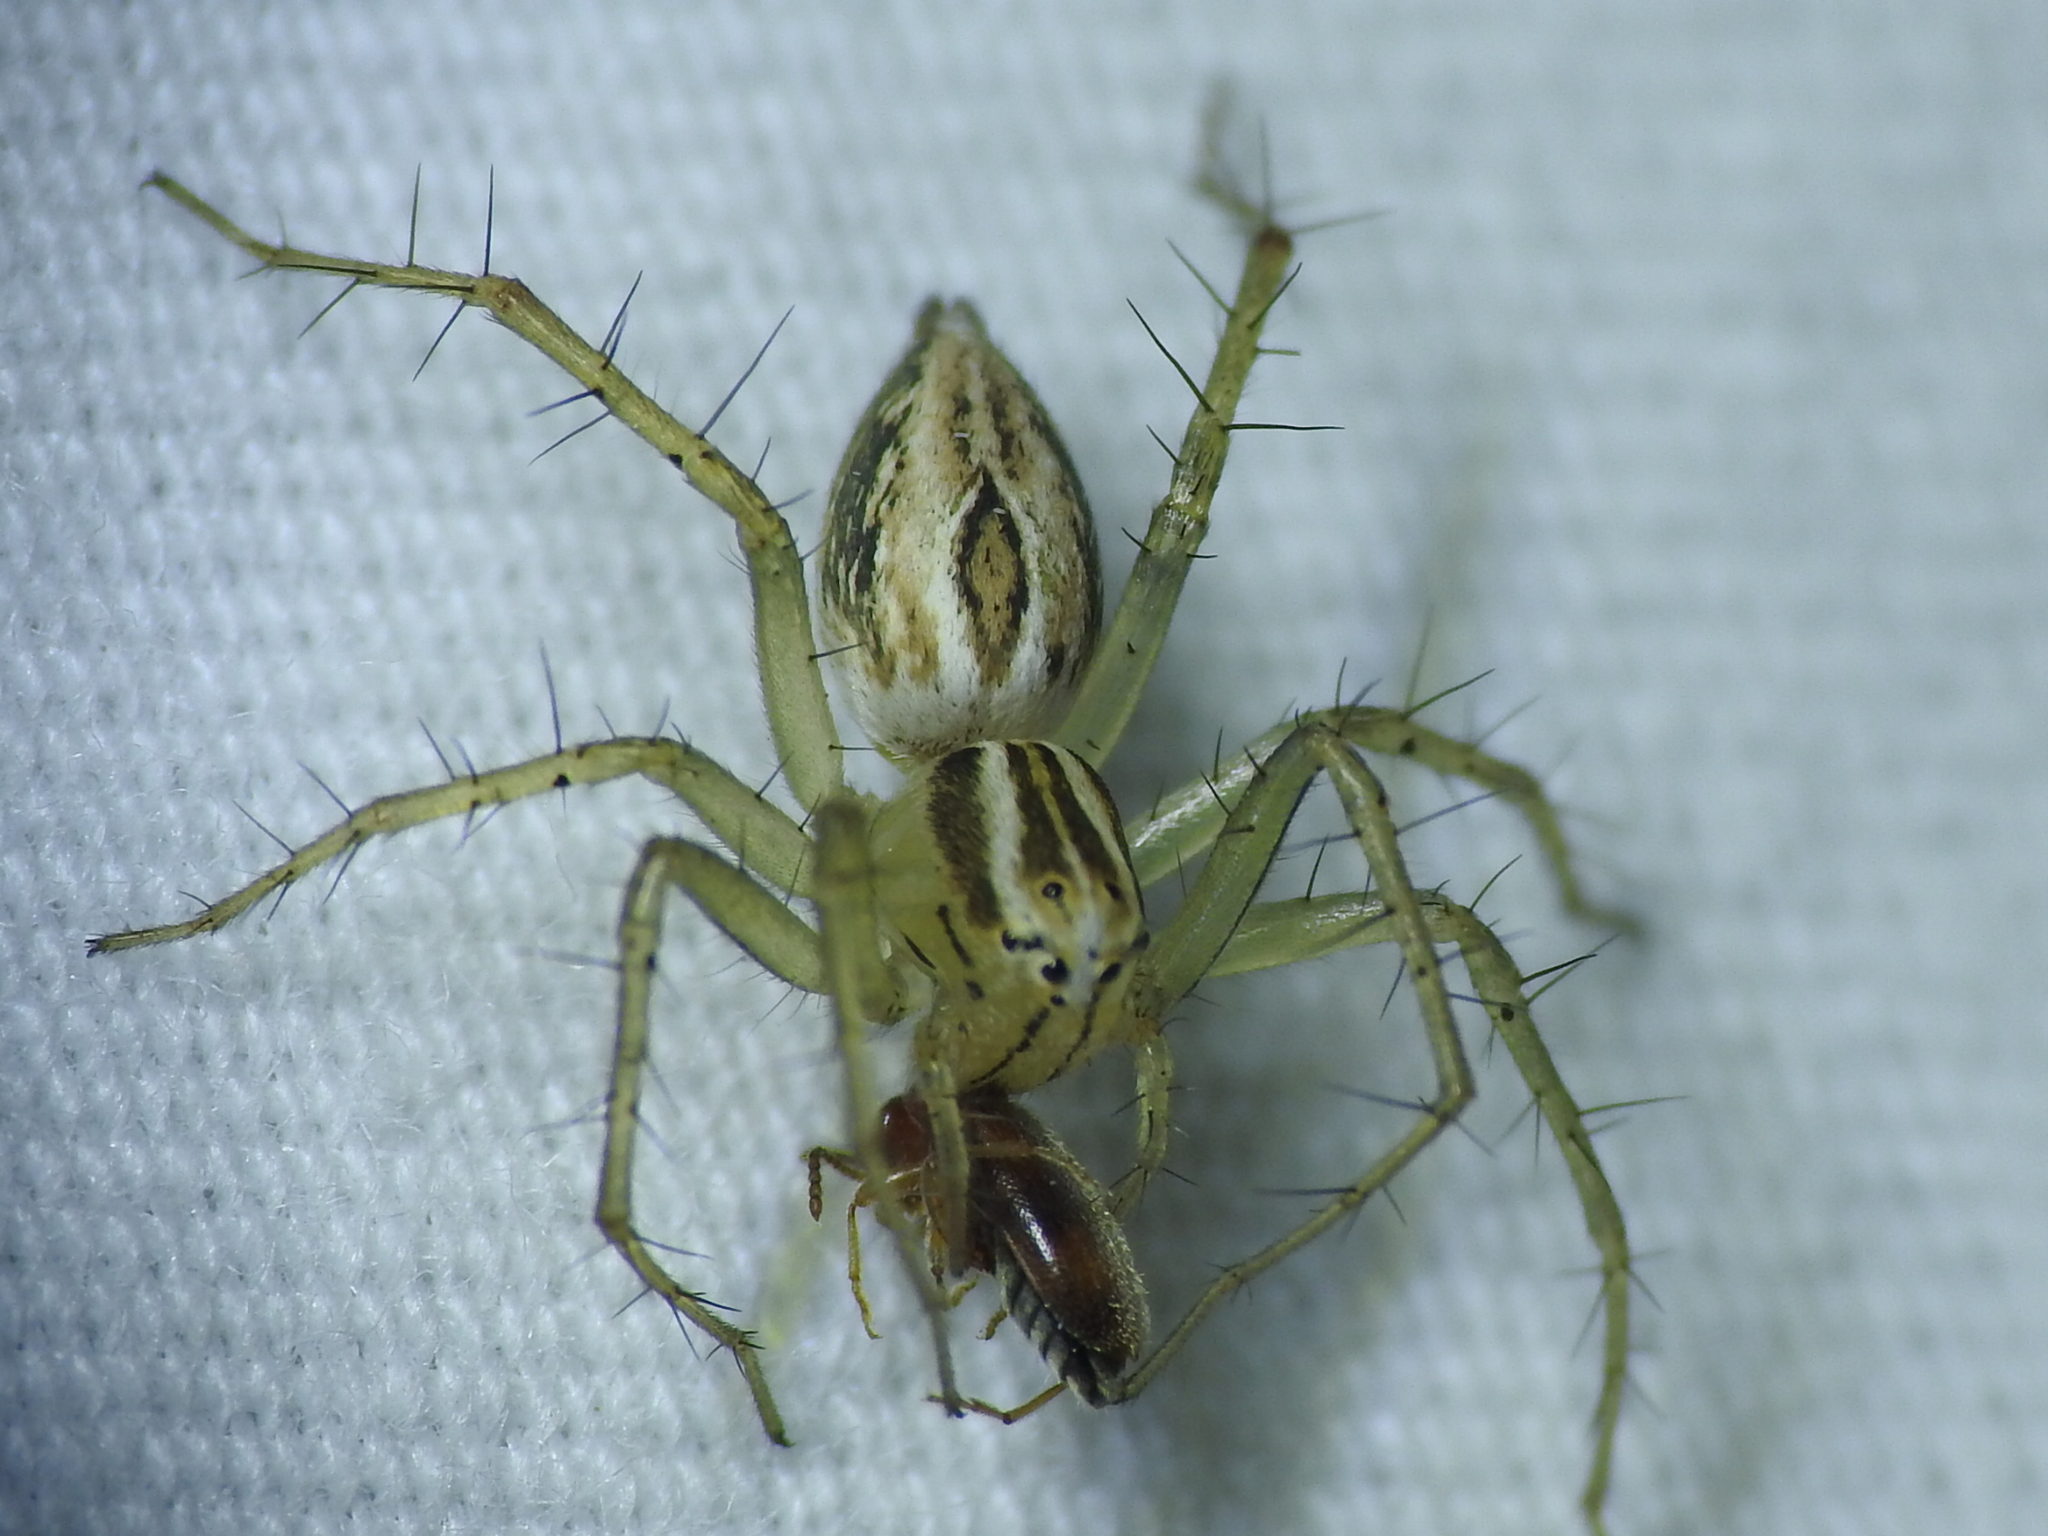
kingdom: Animalia
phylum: Arthropoda
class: Arachnida
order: Araneae
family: Oxyopidae
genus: Oxyopes
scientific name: Oxyopes salticus
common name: Lynx spiders
